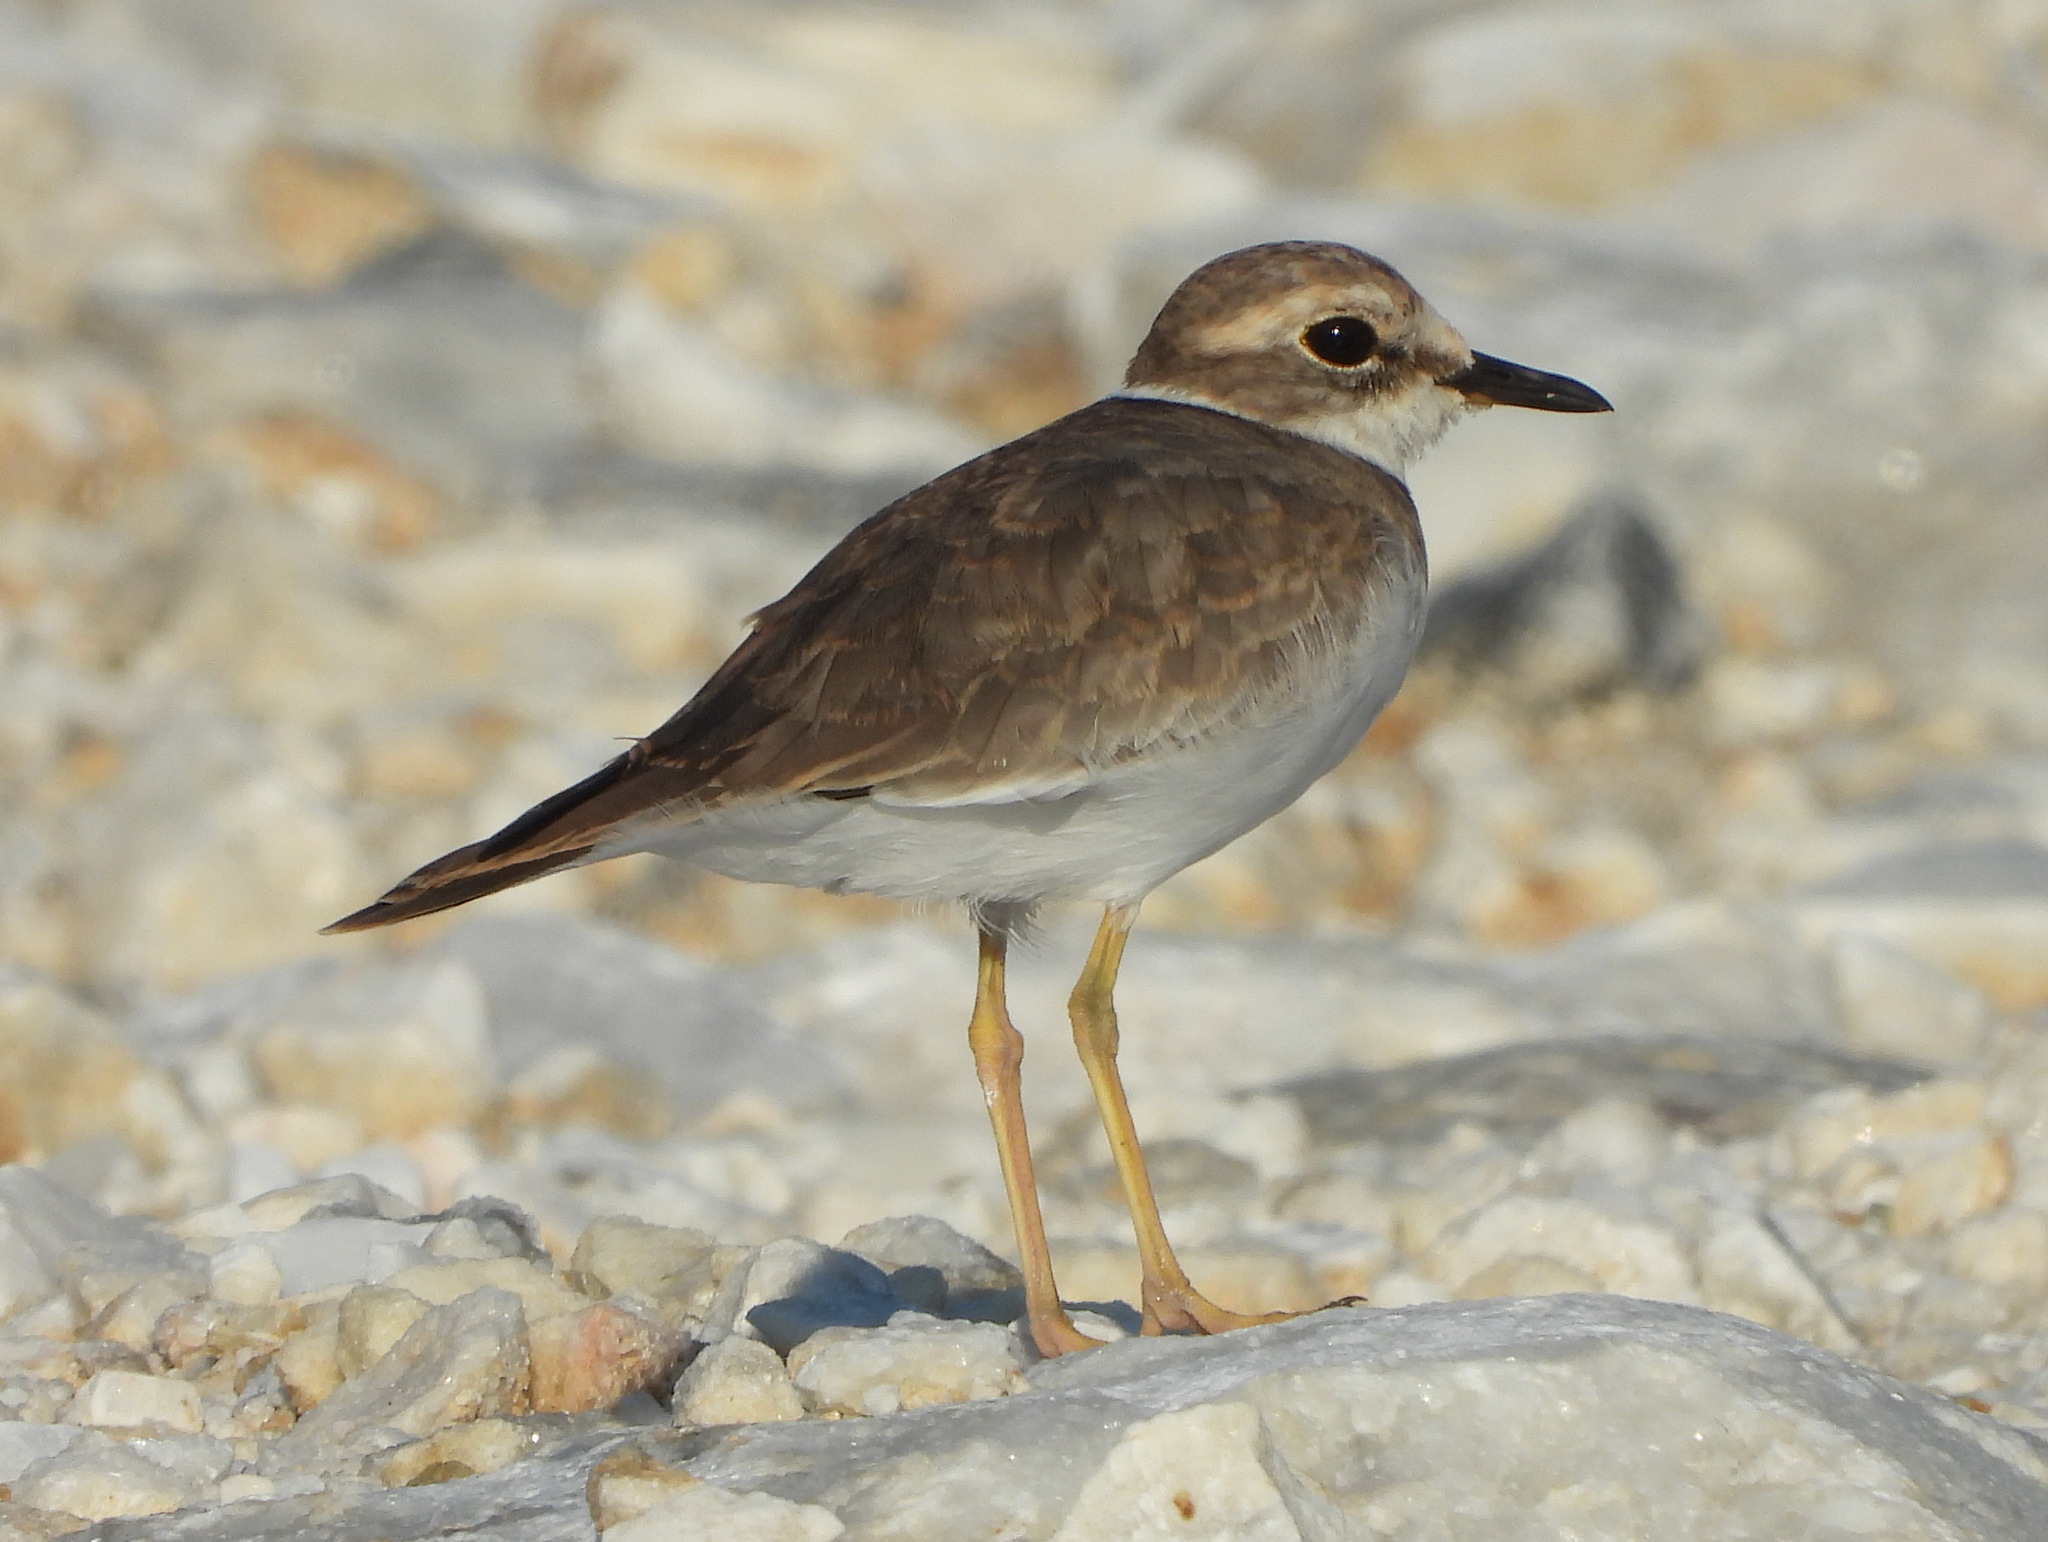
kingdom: Animalia
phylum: Chordata
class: Aves
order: Charadriiformes
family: Charadriidae
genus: Anarhynchus
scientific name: Anarhynchus
